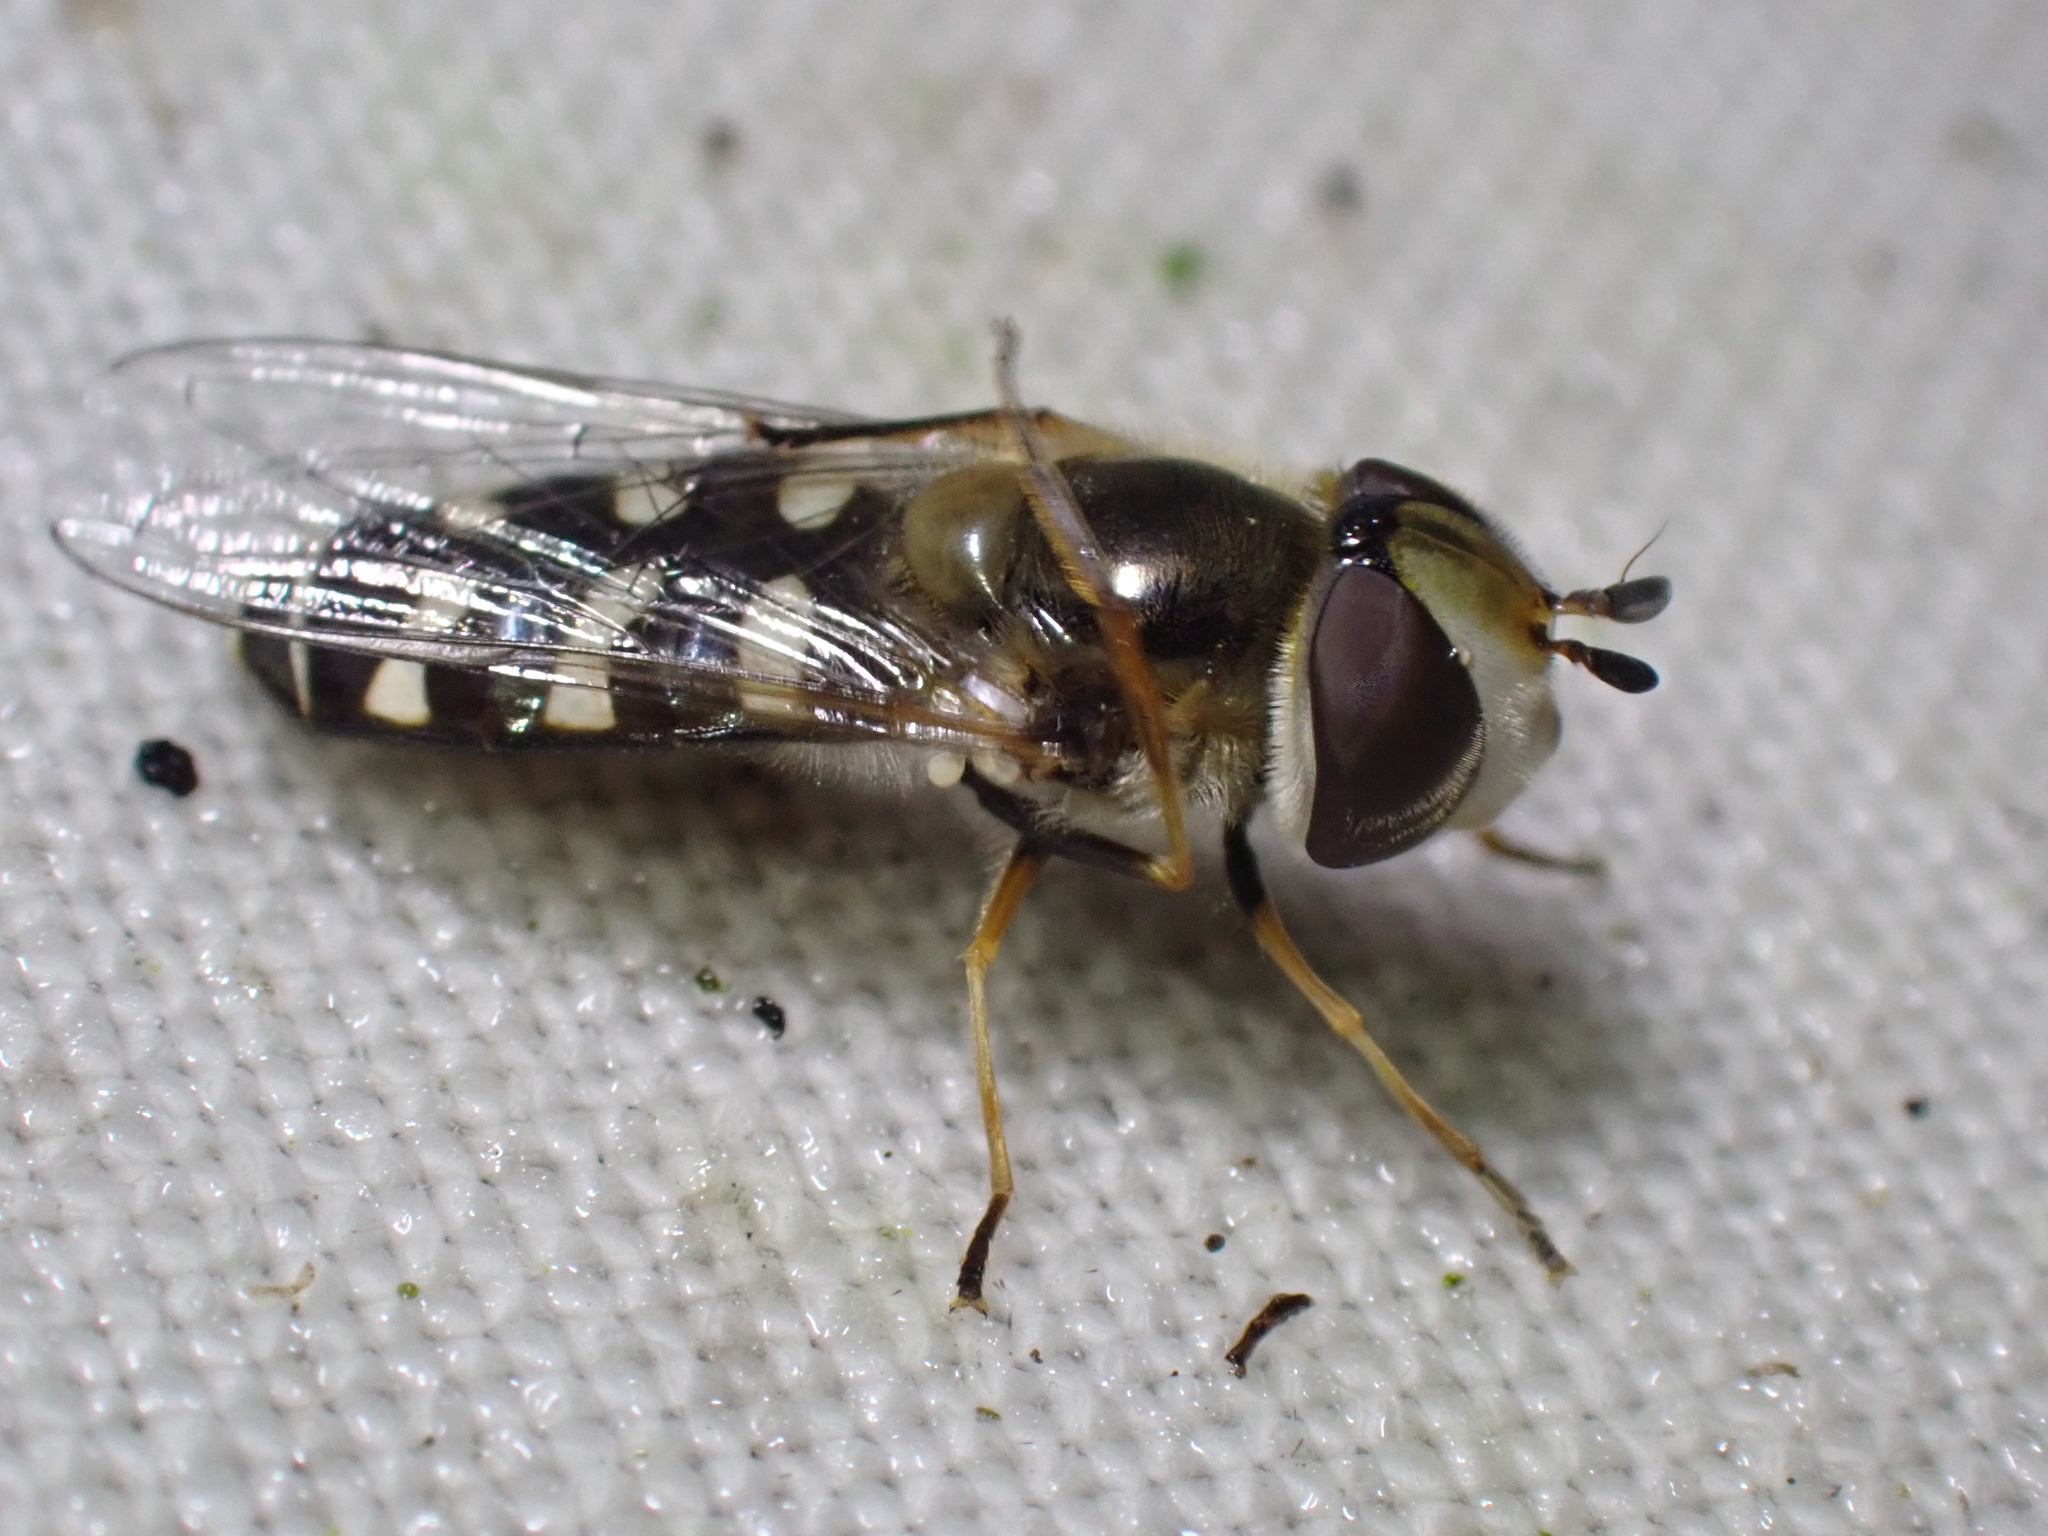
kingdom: Animalia
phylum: Arthropoda
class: Insecta
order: Diptera
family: Syrphidae
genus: Scaeva
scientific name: Scaeva pyrastri
